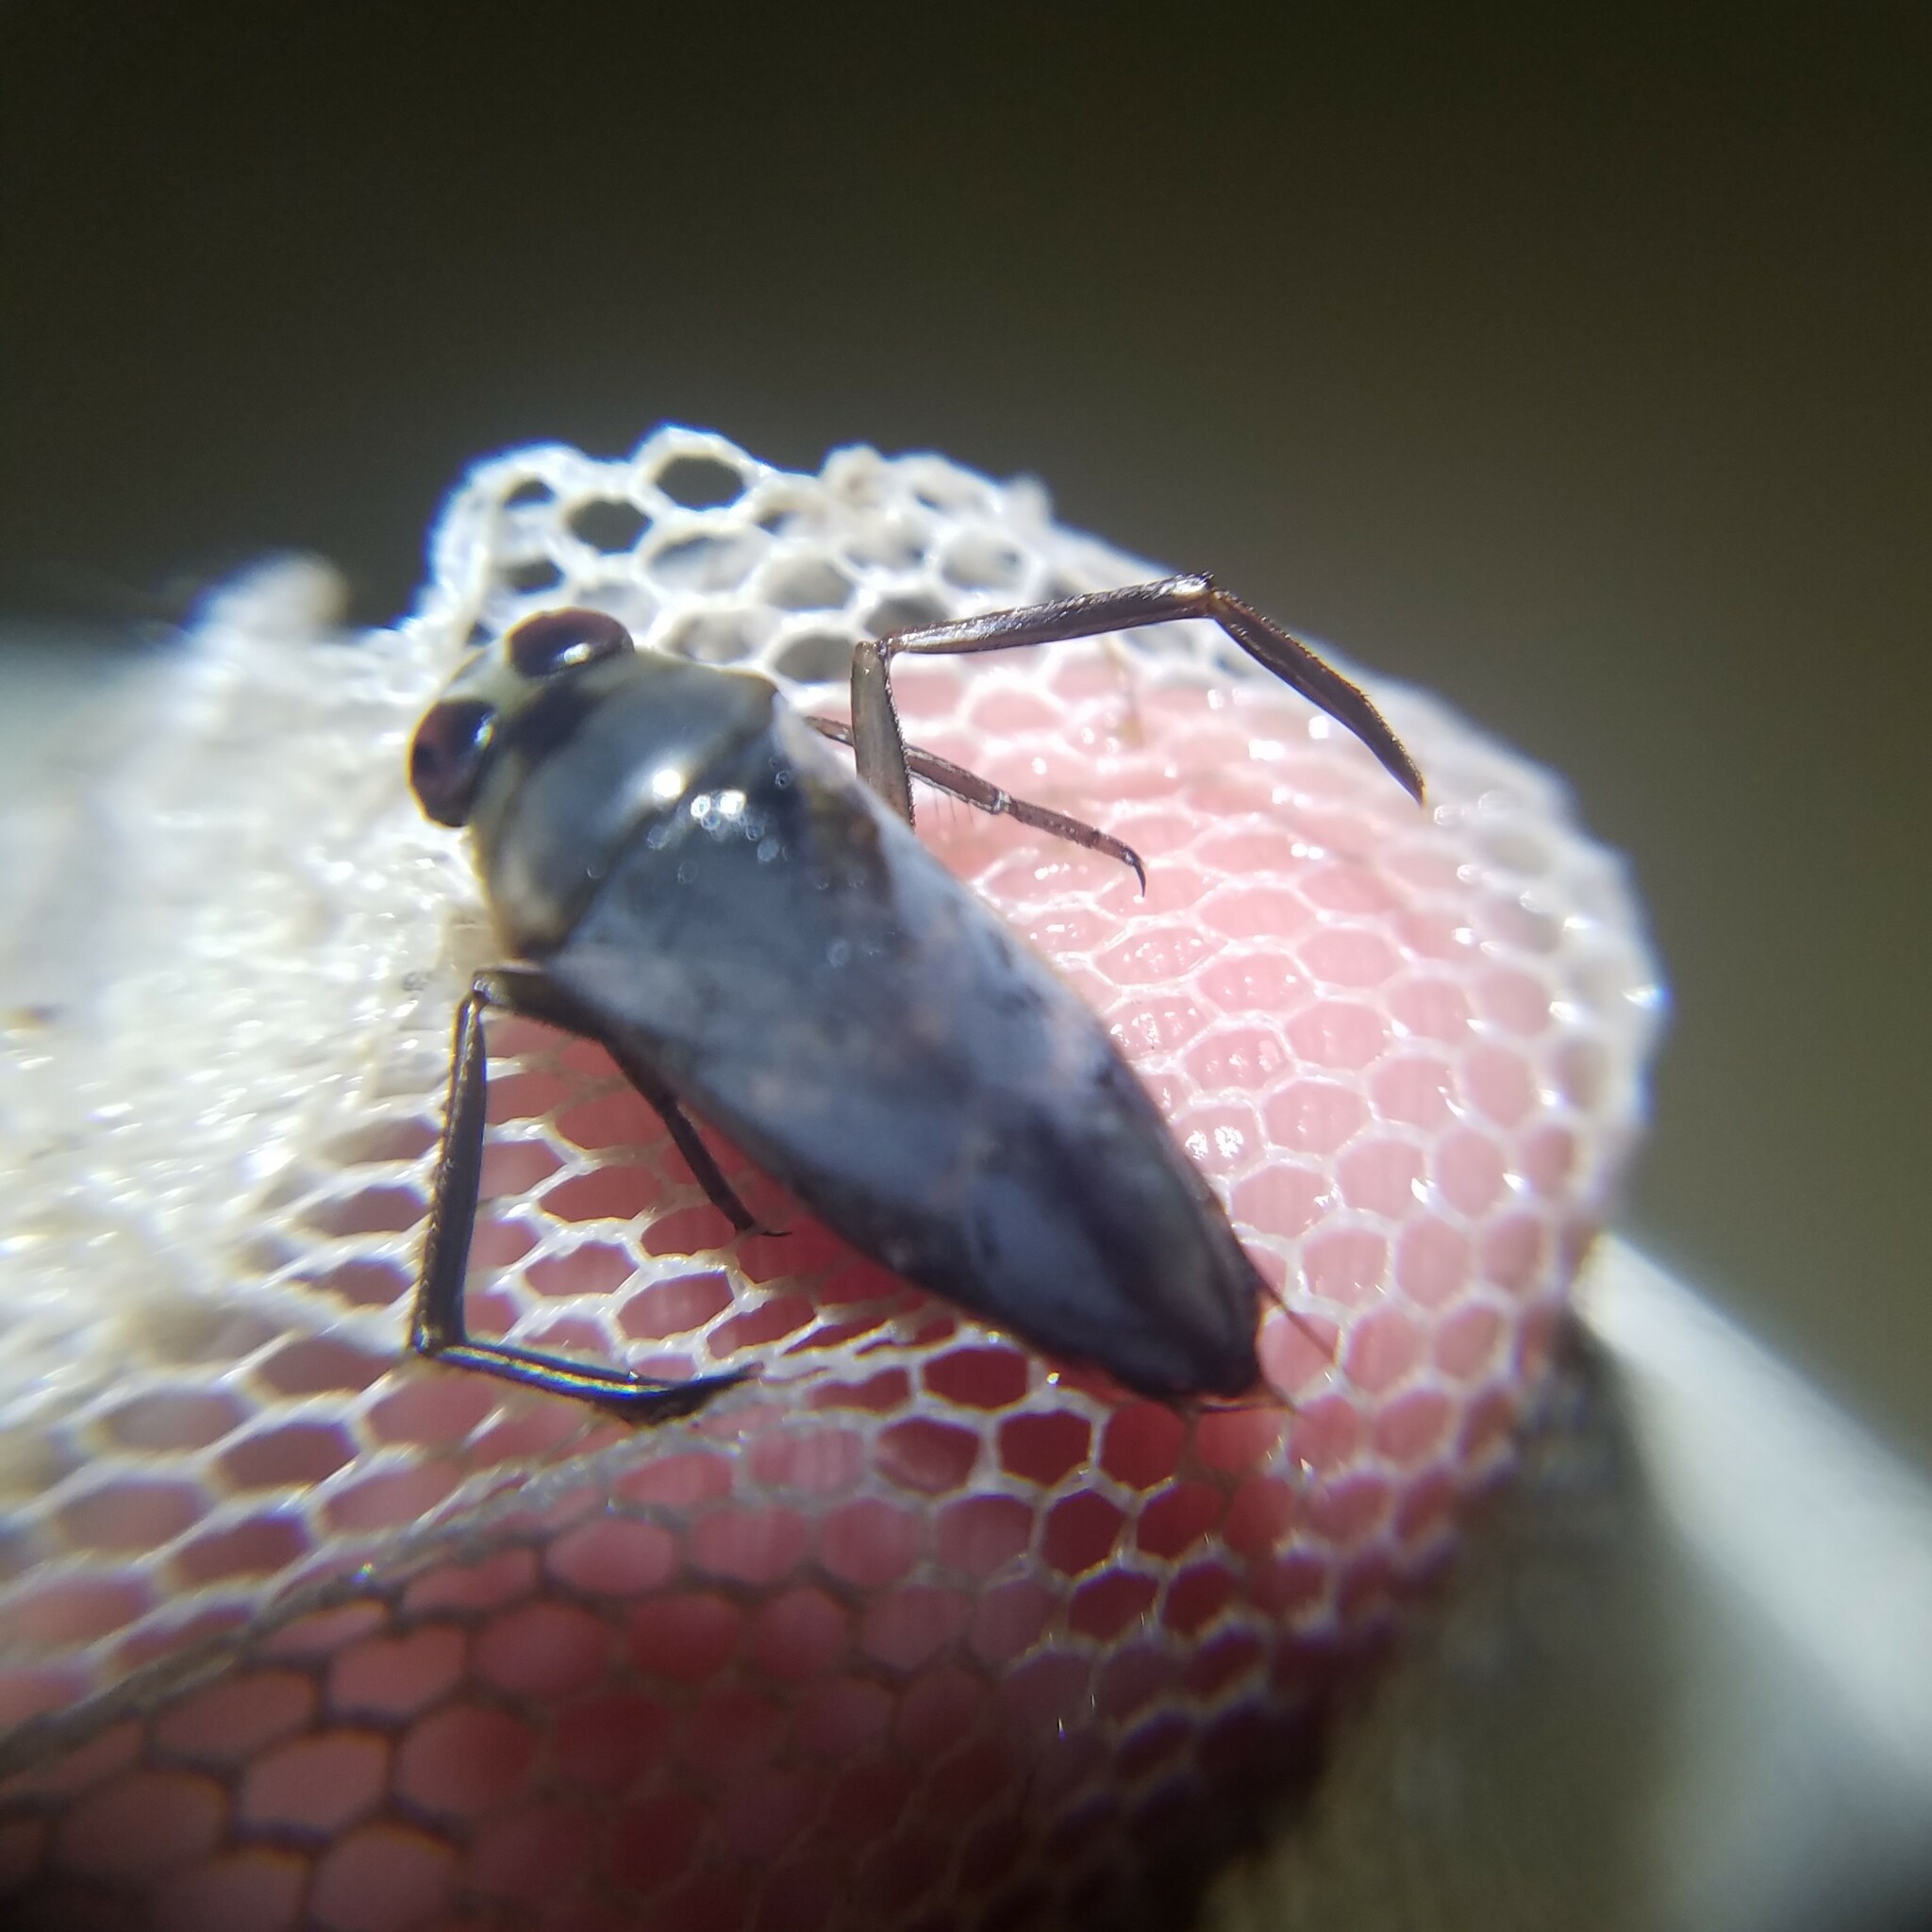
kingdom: Animalia
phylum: Arthropoda
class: Insecta
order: Hemiptera
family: Notonectidae
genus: Notonecta
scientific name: Notonecta irrorata
